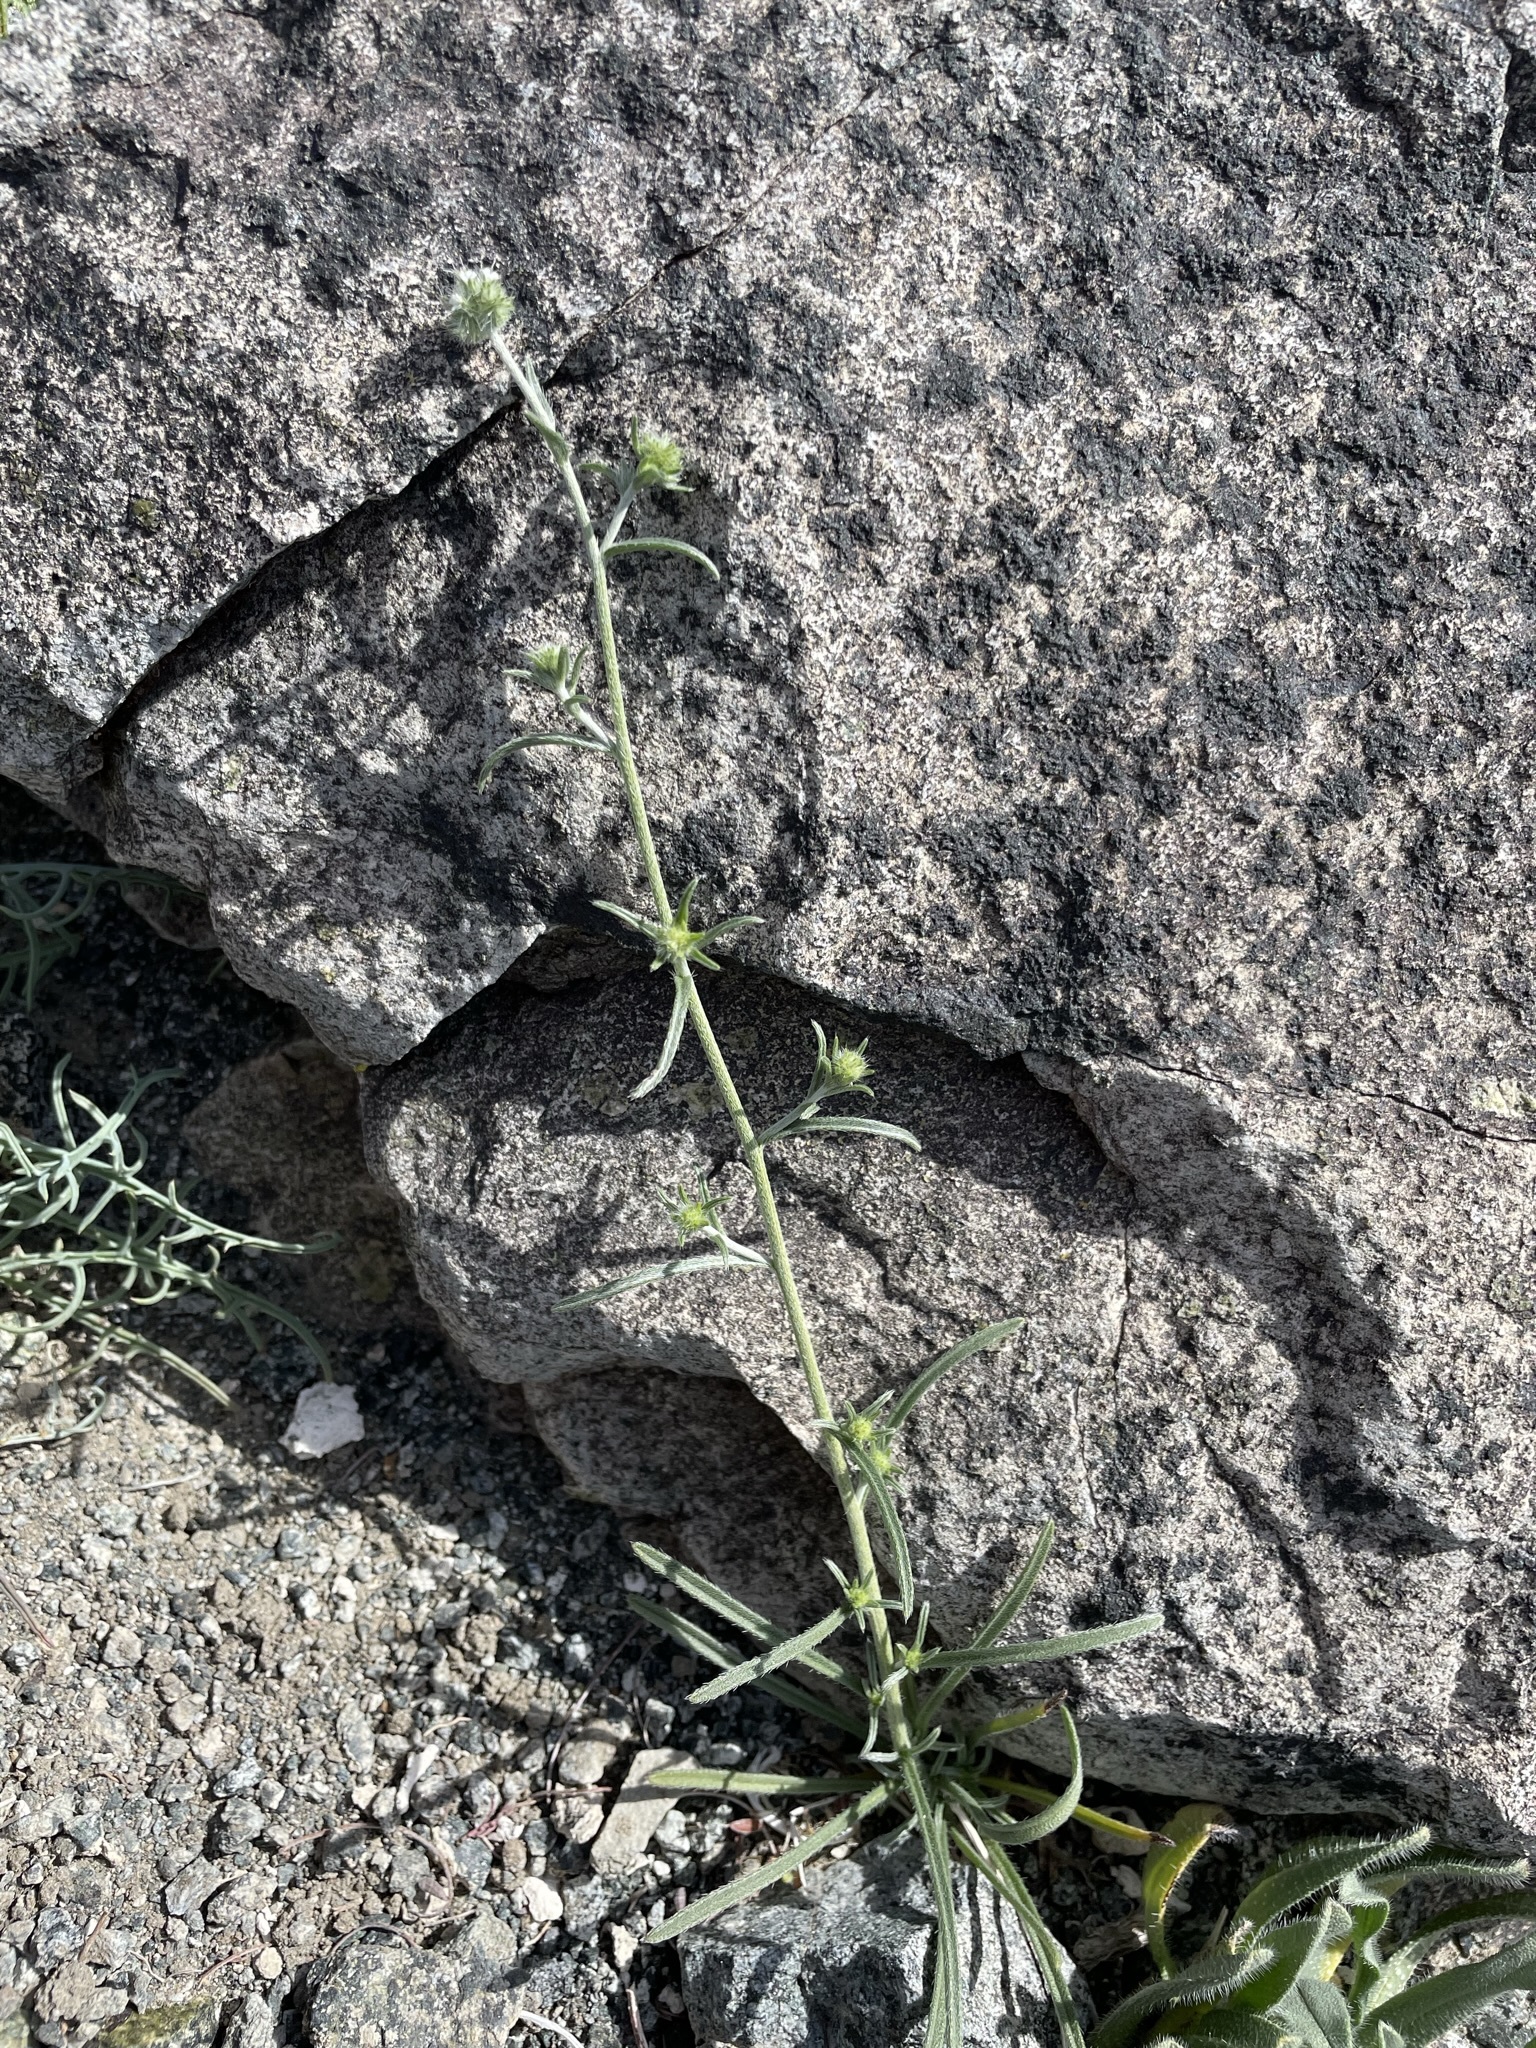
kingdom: Plantae
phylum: Tracheophyta
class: Magnoliopsida
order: Boraginales
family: Boraginaceae
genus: Cryptantha
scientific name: Cryptantha nevadensis
